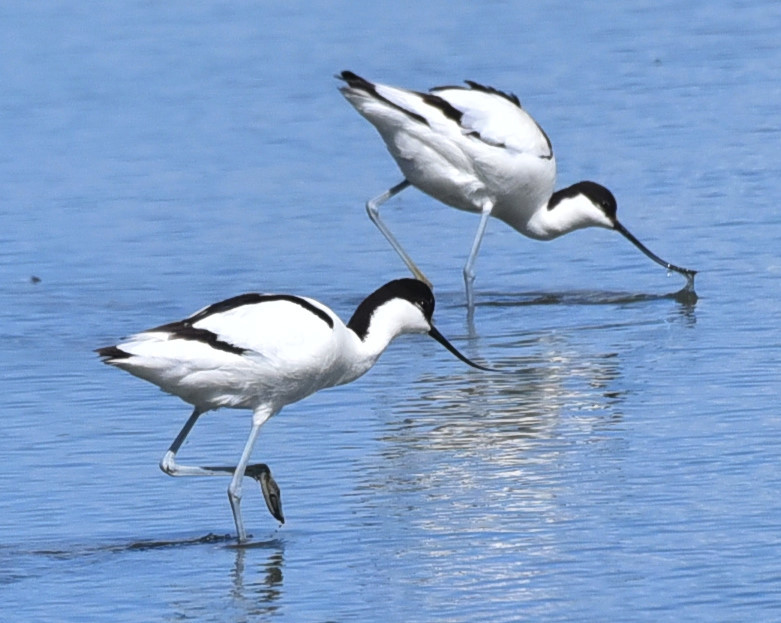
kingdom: Animalia
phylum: Chordata
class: Aves
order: Charadriiformes
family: Recurvirostridae
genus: Recurvirostra
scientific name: Recurvirostra avosetta
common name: Pied avocet
